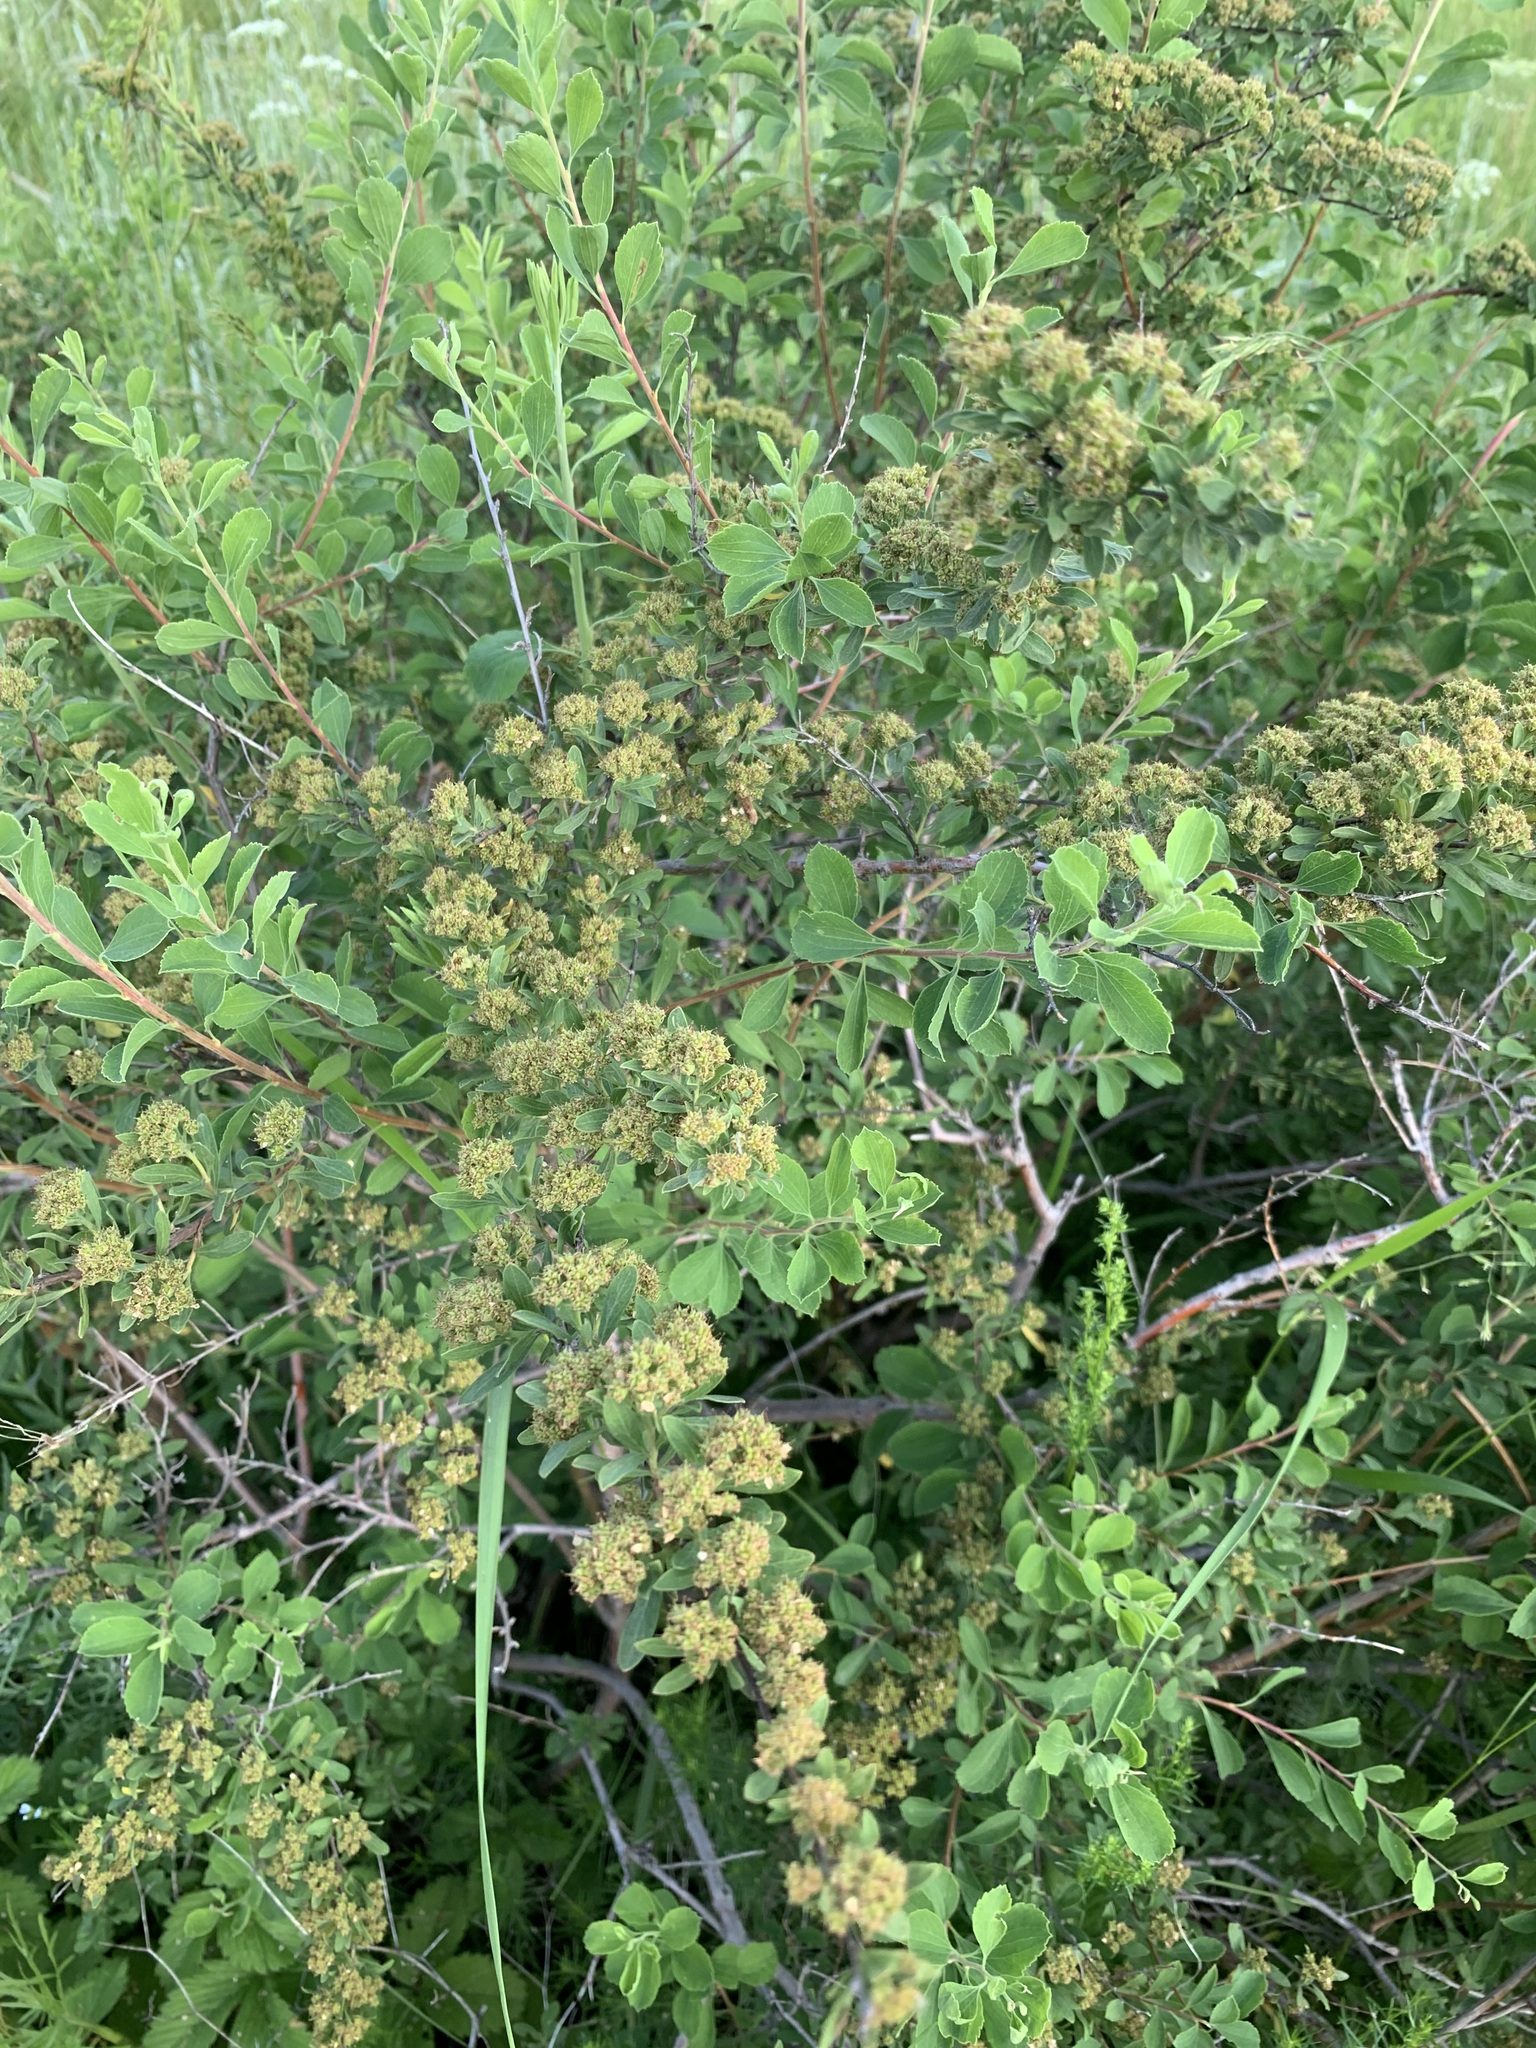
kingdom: Plantae
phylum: Tracheophyta
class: Magnoliopsida
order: Rosales
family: Rosaceae
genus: Spiraea
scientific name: Spiraea hypericifolia
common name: Iberian spirea
